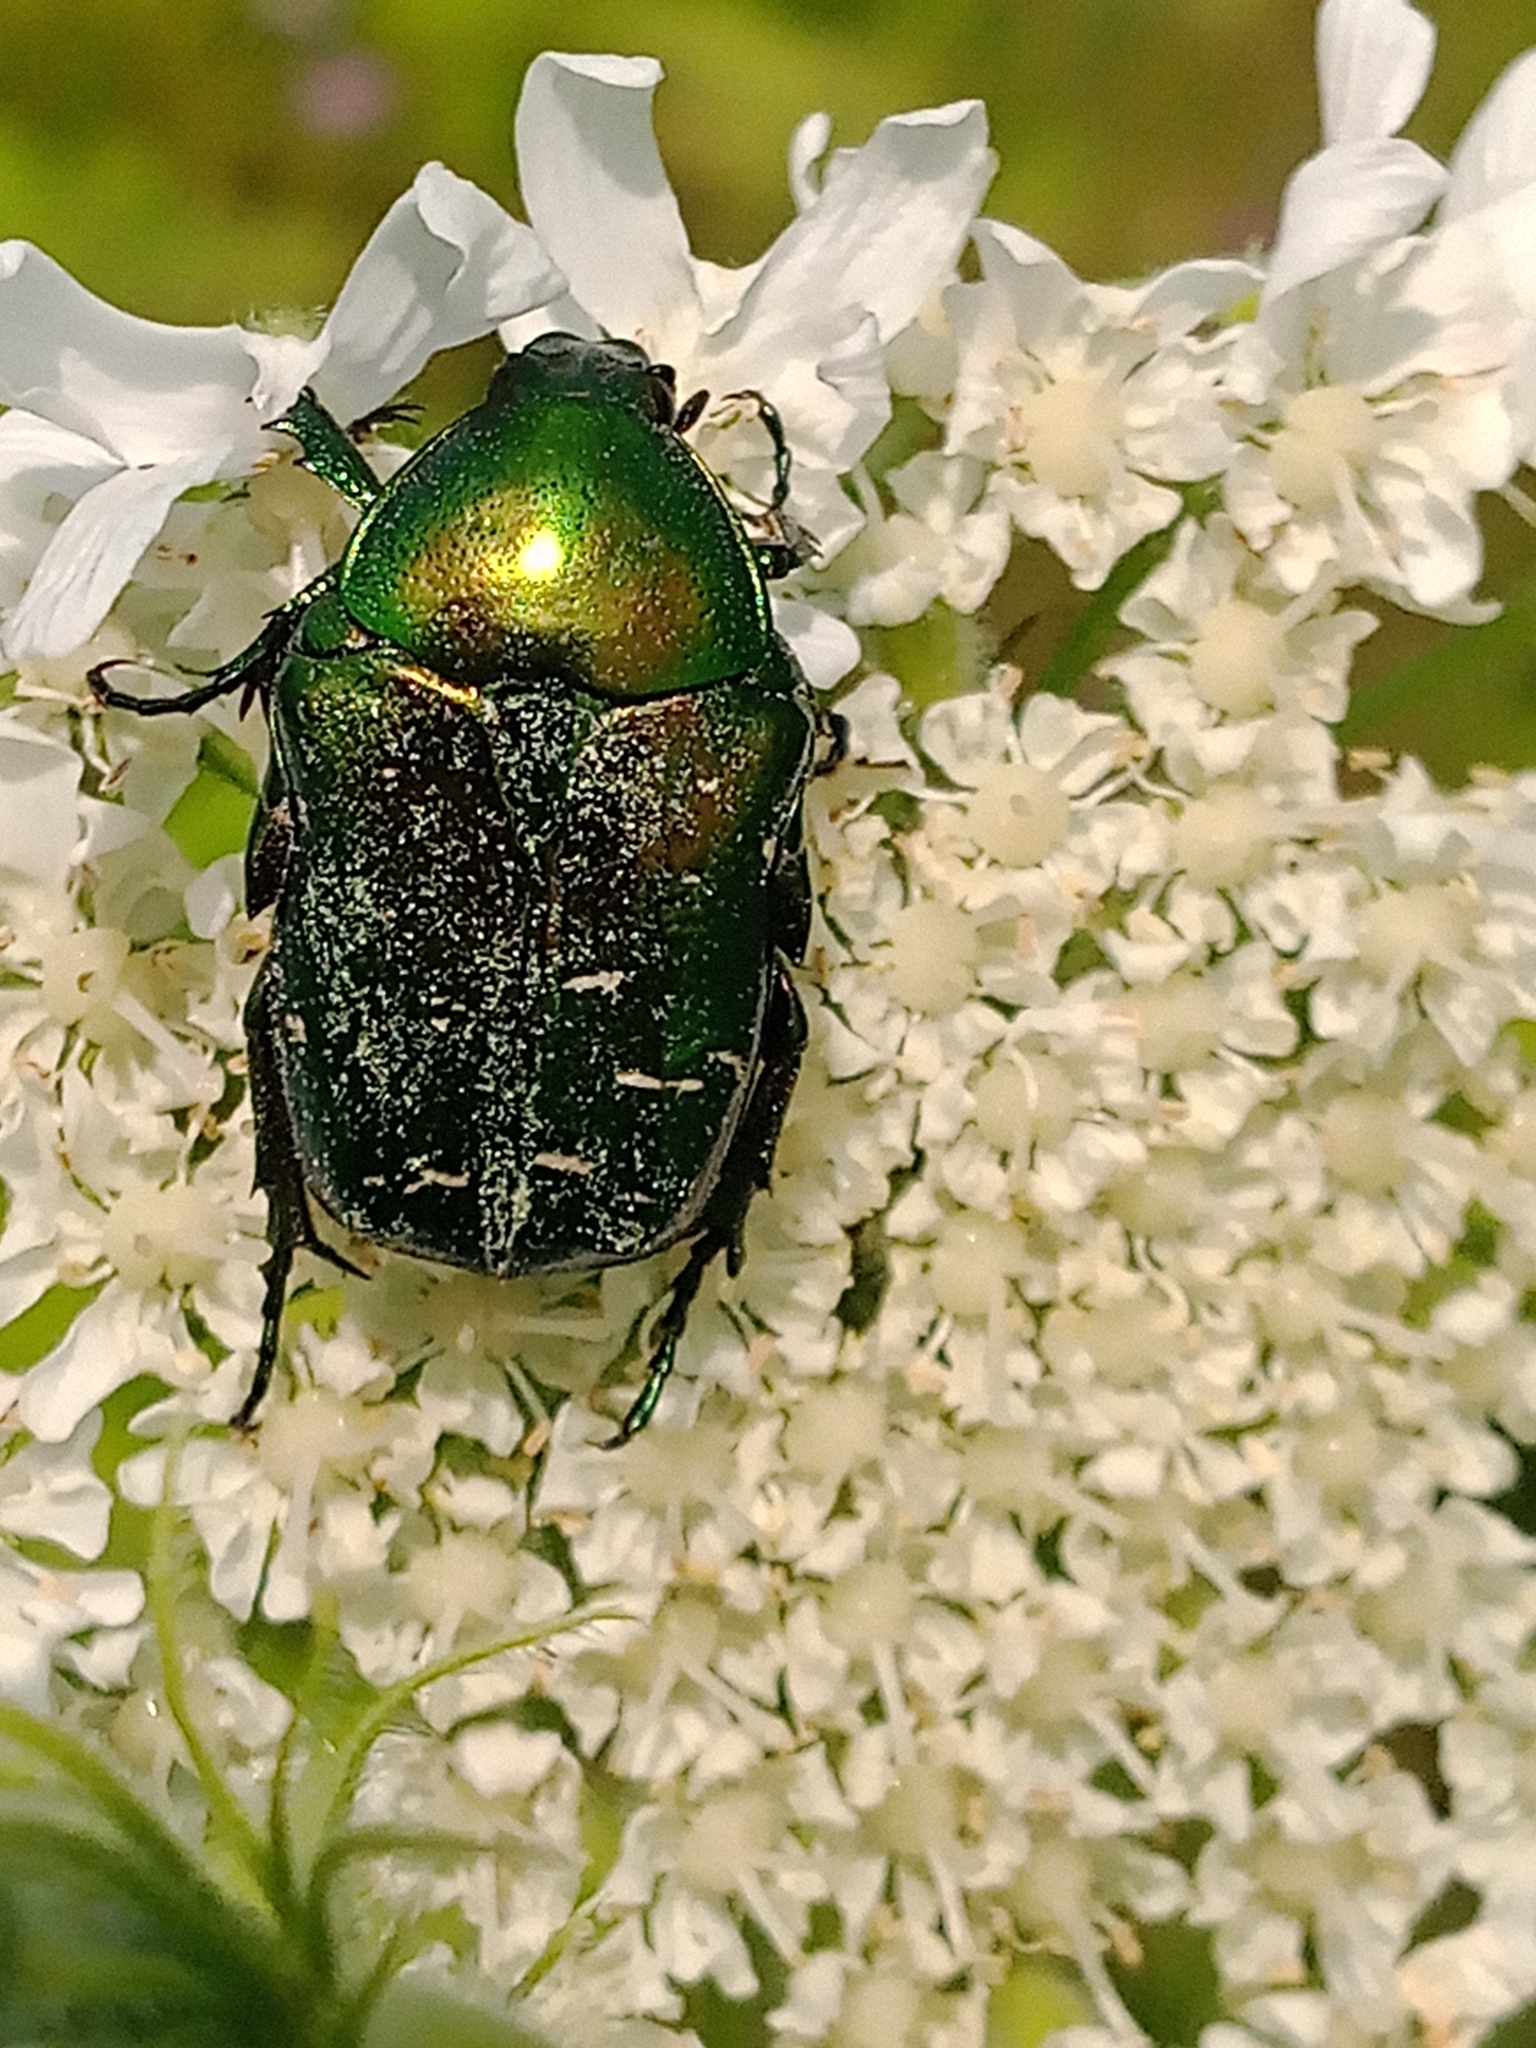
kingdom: Animalia
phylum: Arthropoda
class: Insecta
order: Coleoptera
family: Scarabaeidae
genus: Cetonia
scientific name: Cetonia aurata
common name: Rose chafer
